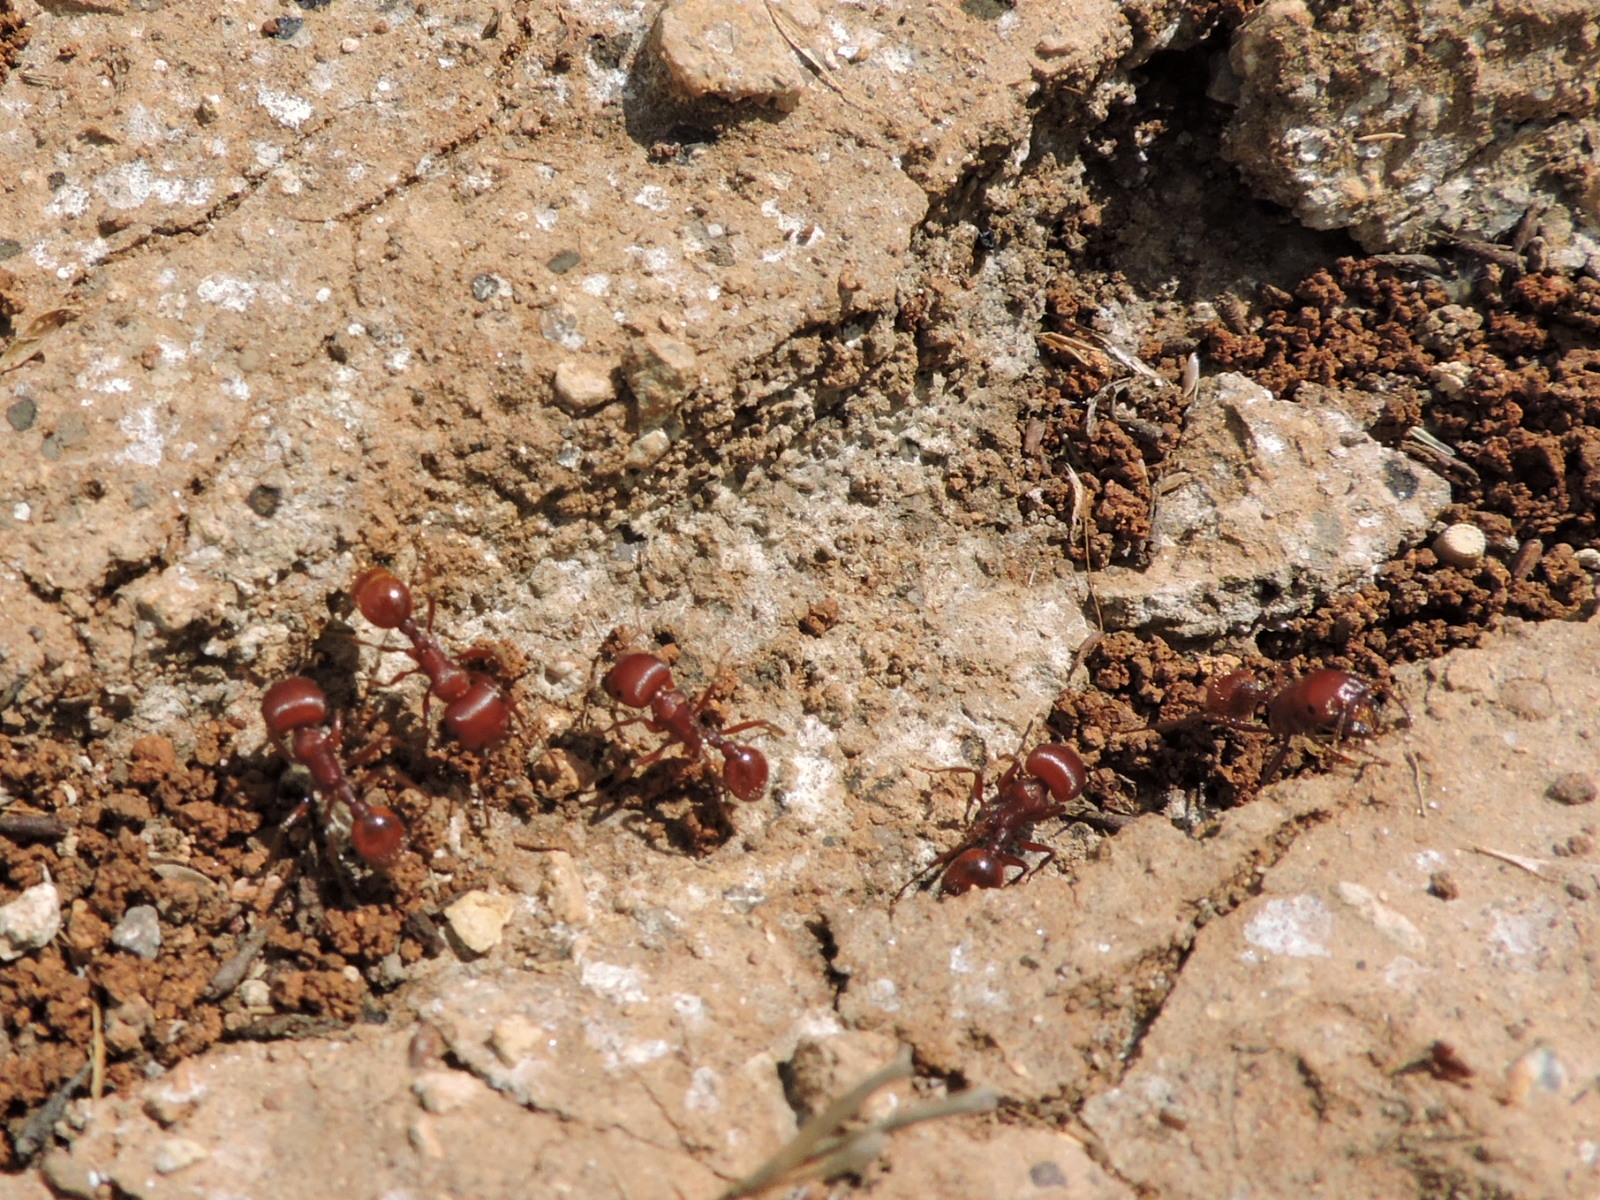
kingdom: Animalia
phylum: Arthropoda
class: Insecta
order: Hymenoptera
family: Formicidae
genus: Pogonomyrmex
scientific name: Pogonomyrmex barbatus
